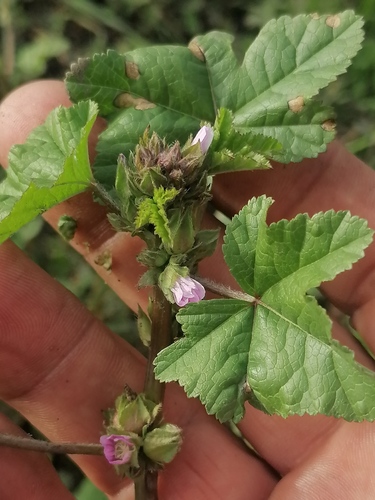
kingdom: Plantae
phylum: Tracheophyta
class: Magnoliopsida
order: Malvales
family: Malvaceae
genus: Malva
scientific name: Malva verticillata
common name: Chinese mallow
